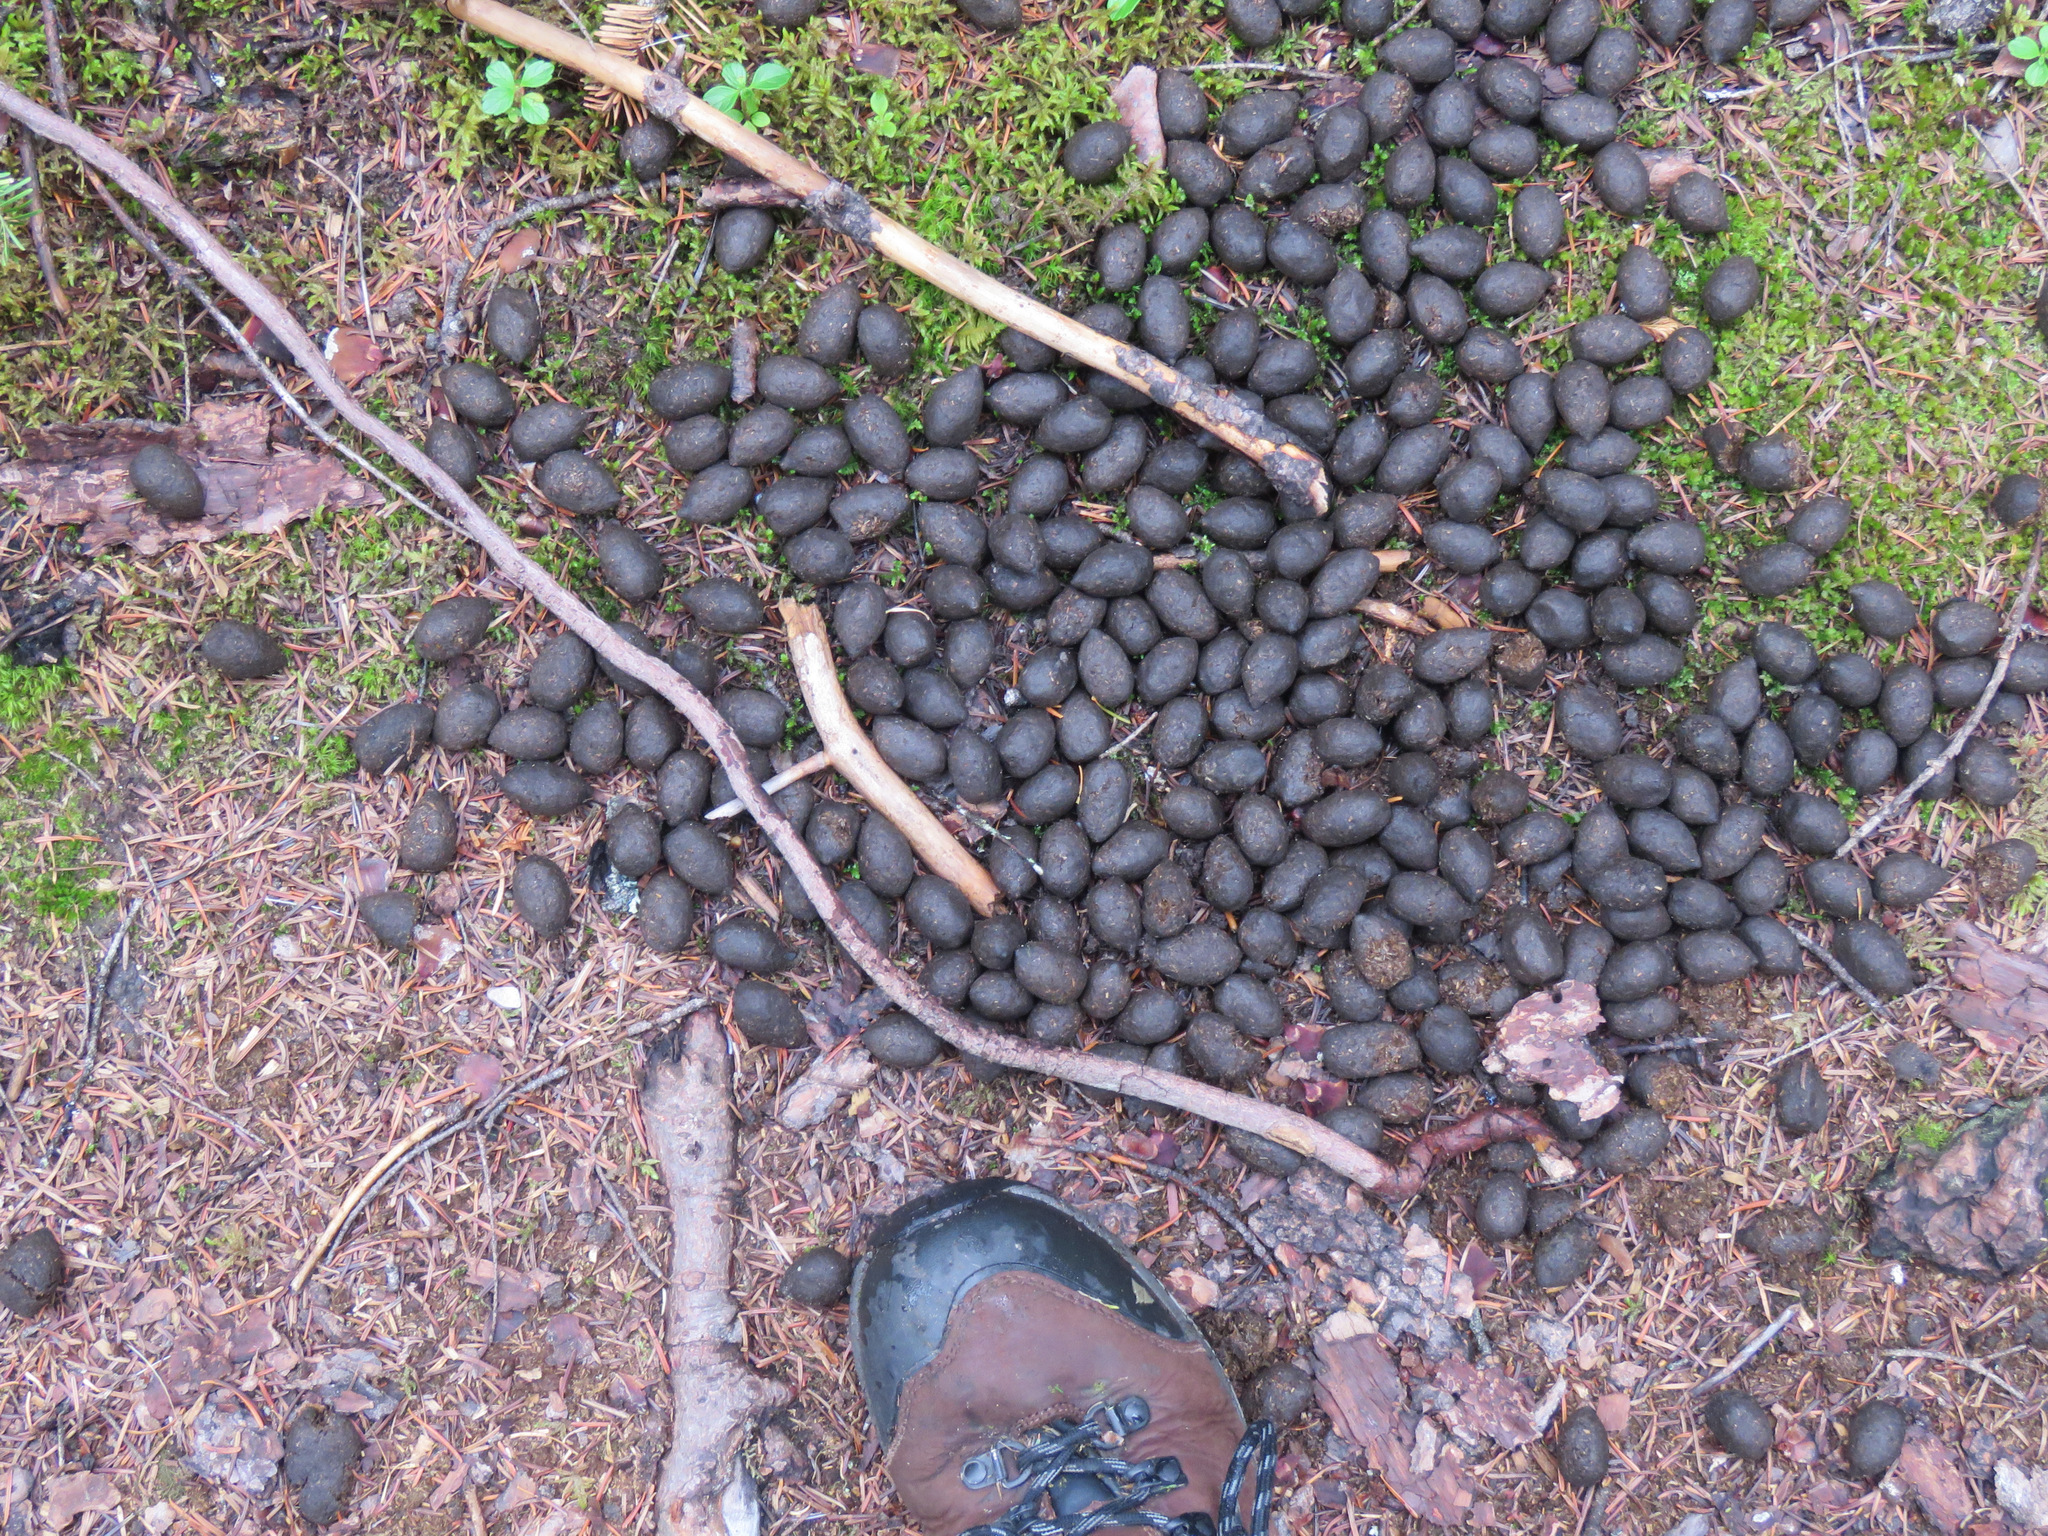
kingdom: Animalia
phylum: Chordata
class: Mammalia
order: Artiodactyla
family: Cervidae
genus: Alces
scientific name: Alces alces
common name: Moose
